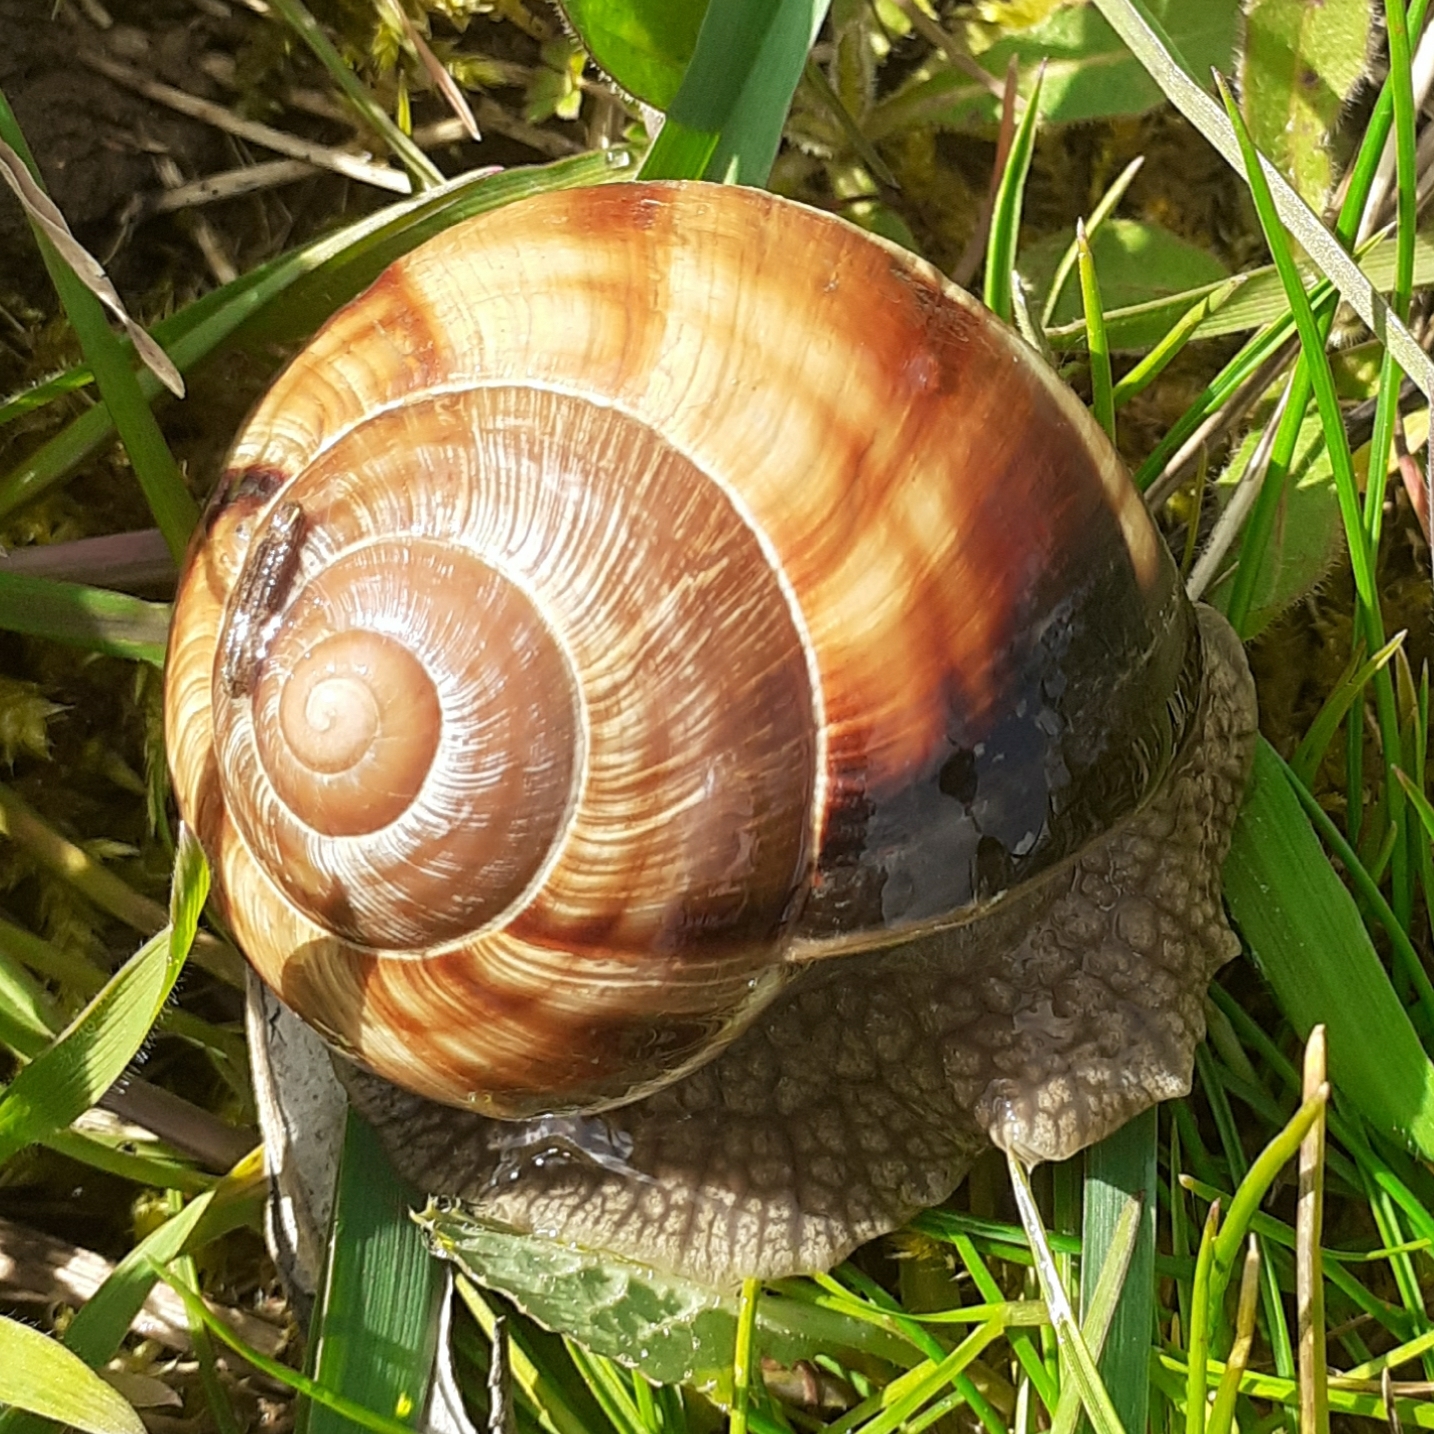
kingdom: Animalia
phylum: Mollusca
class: Gastropoda
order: Stylommatophora
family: Helicidae
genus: Helix
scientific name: Helix lucorum
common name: Turkish snail
